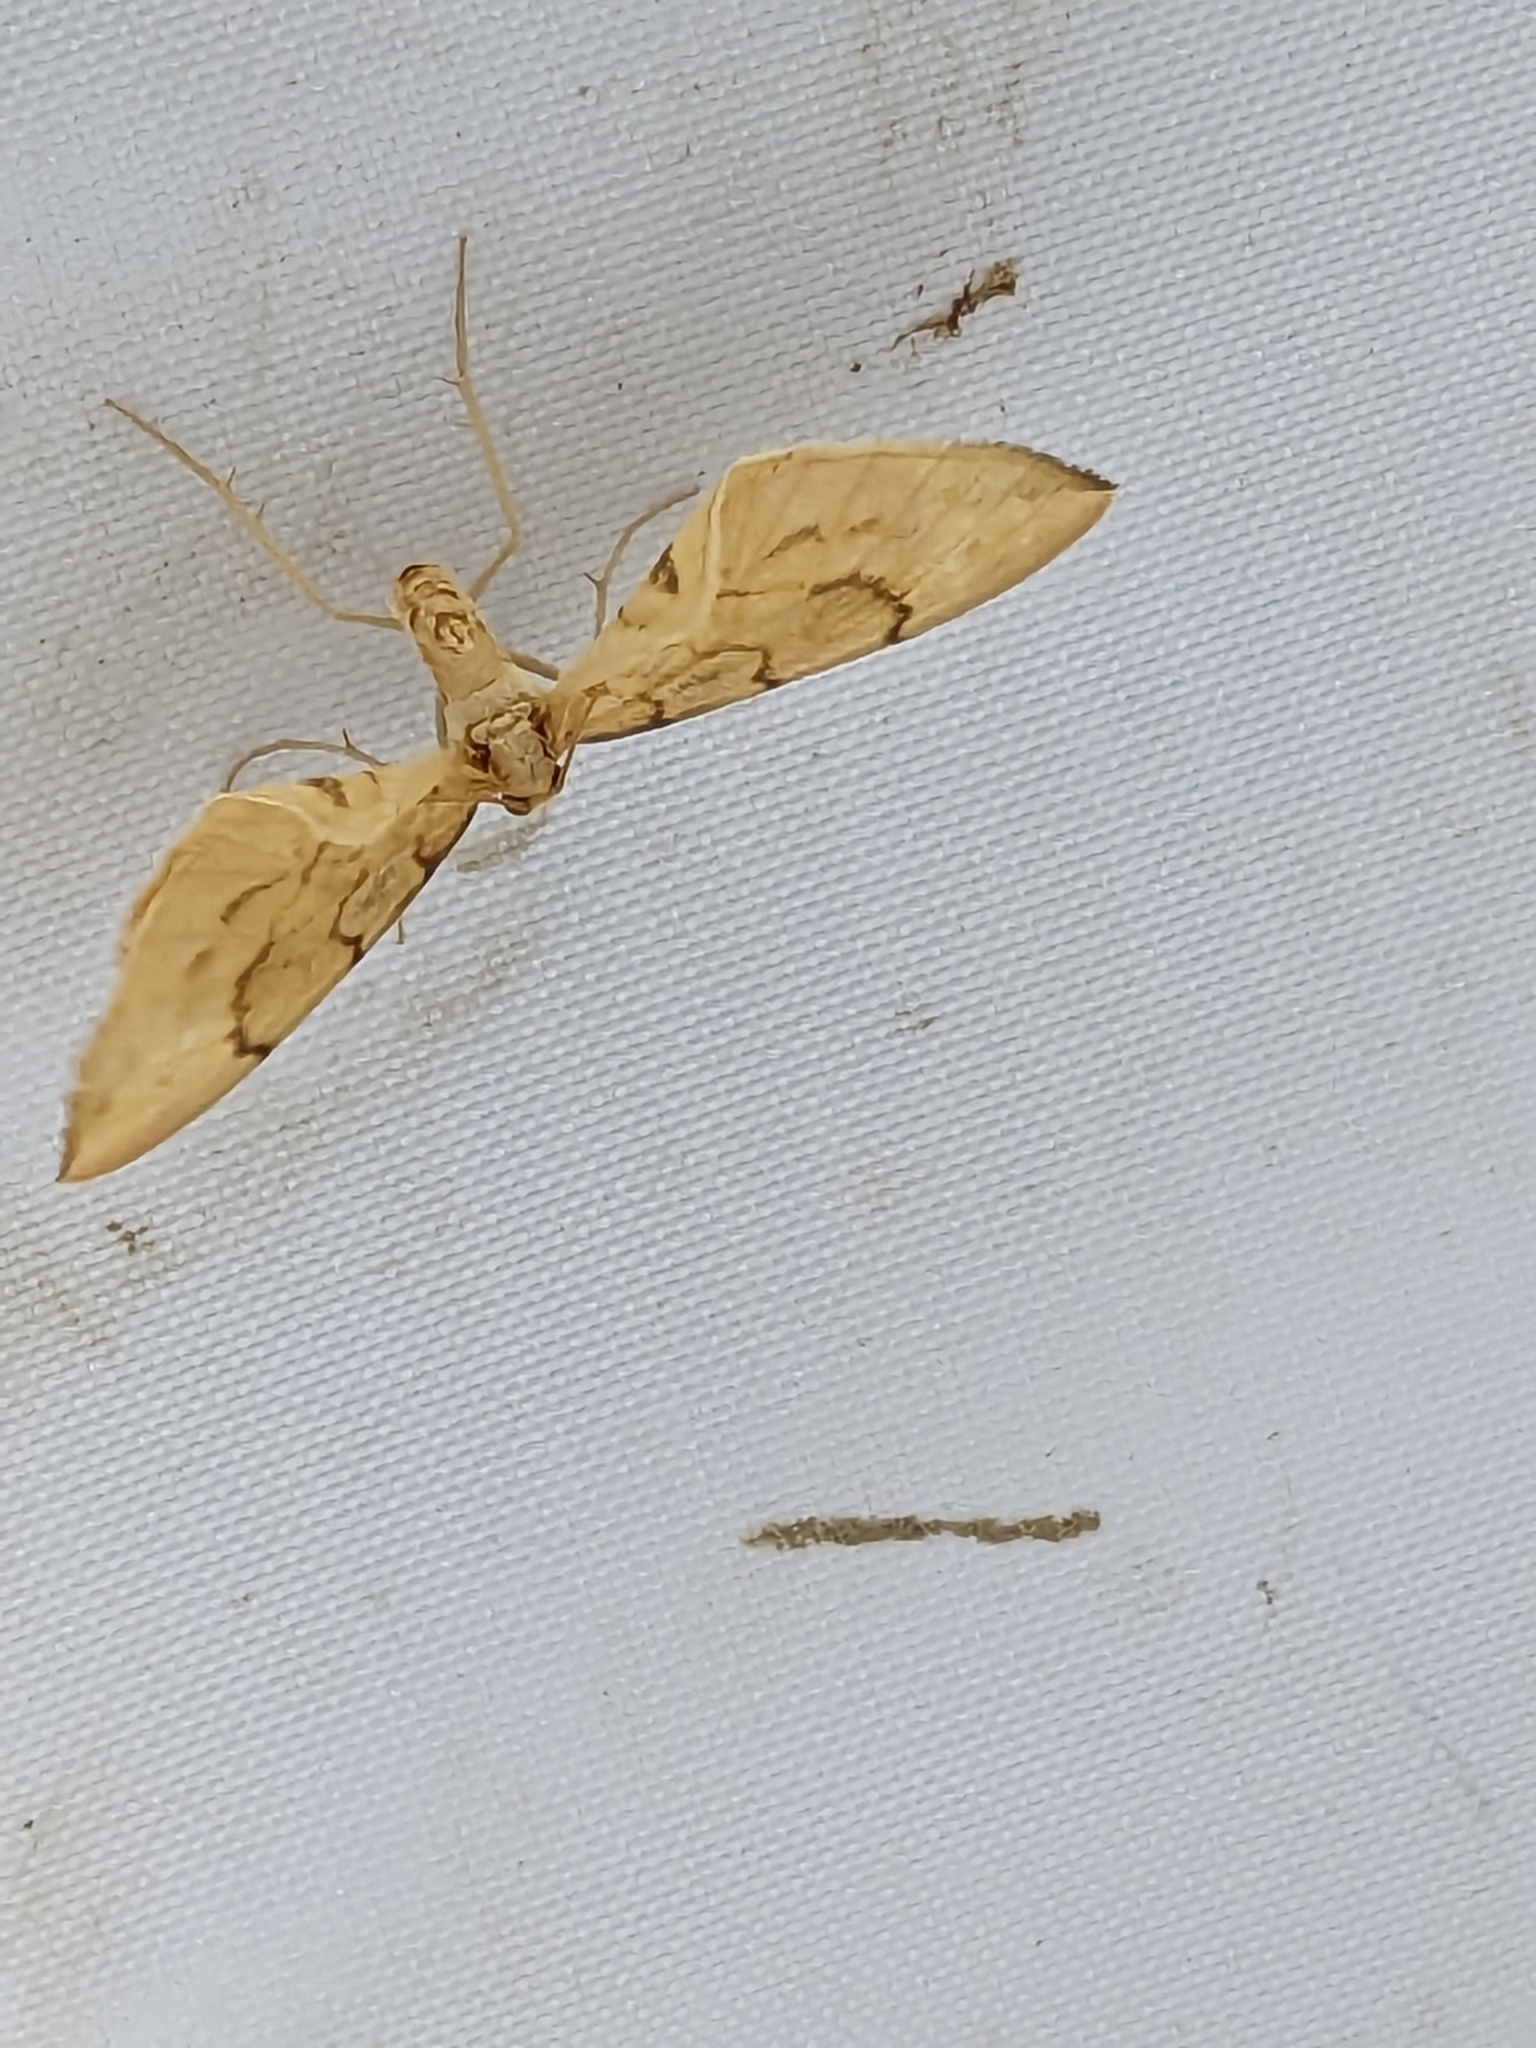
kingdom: Animalia
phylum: Arthropoda
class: Insecta
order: Lepidoptera
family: Geometridae
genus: Eulithis
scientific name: Eulithis pyraliata
